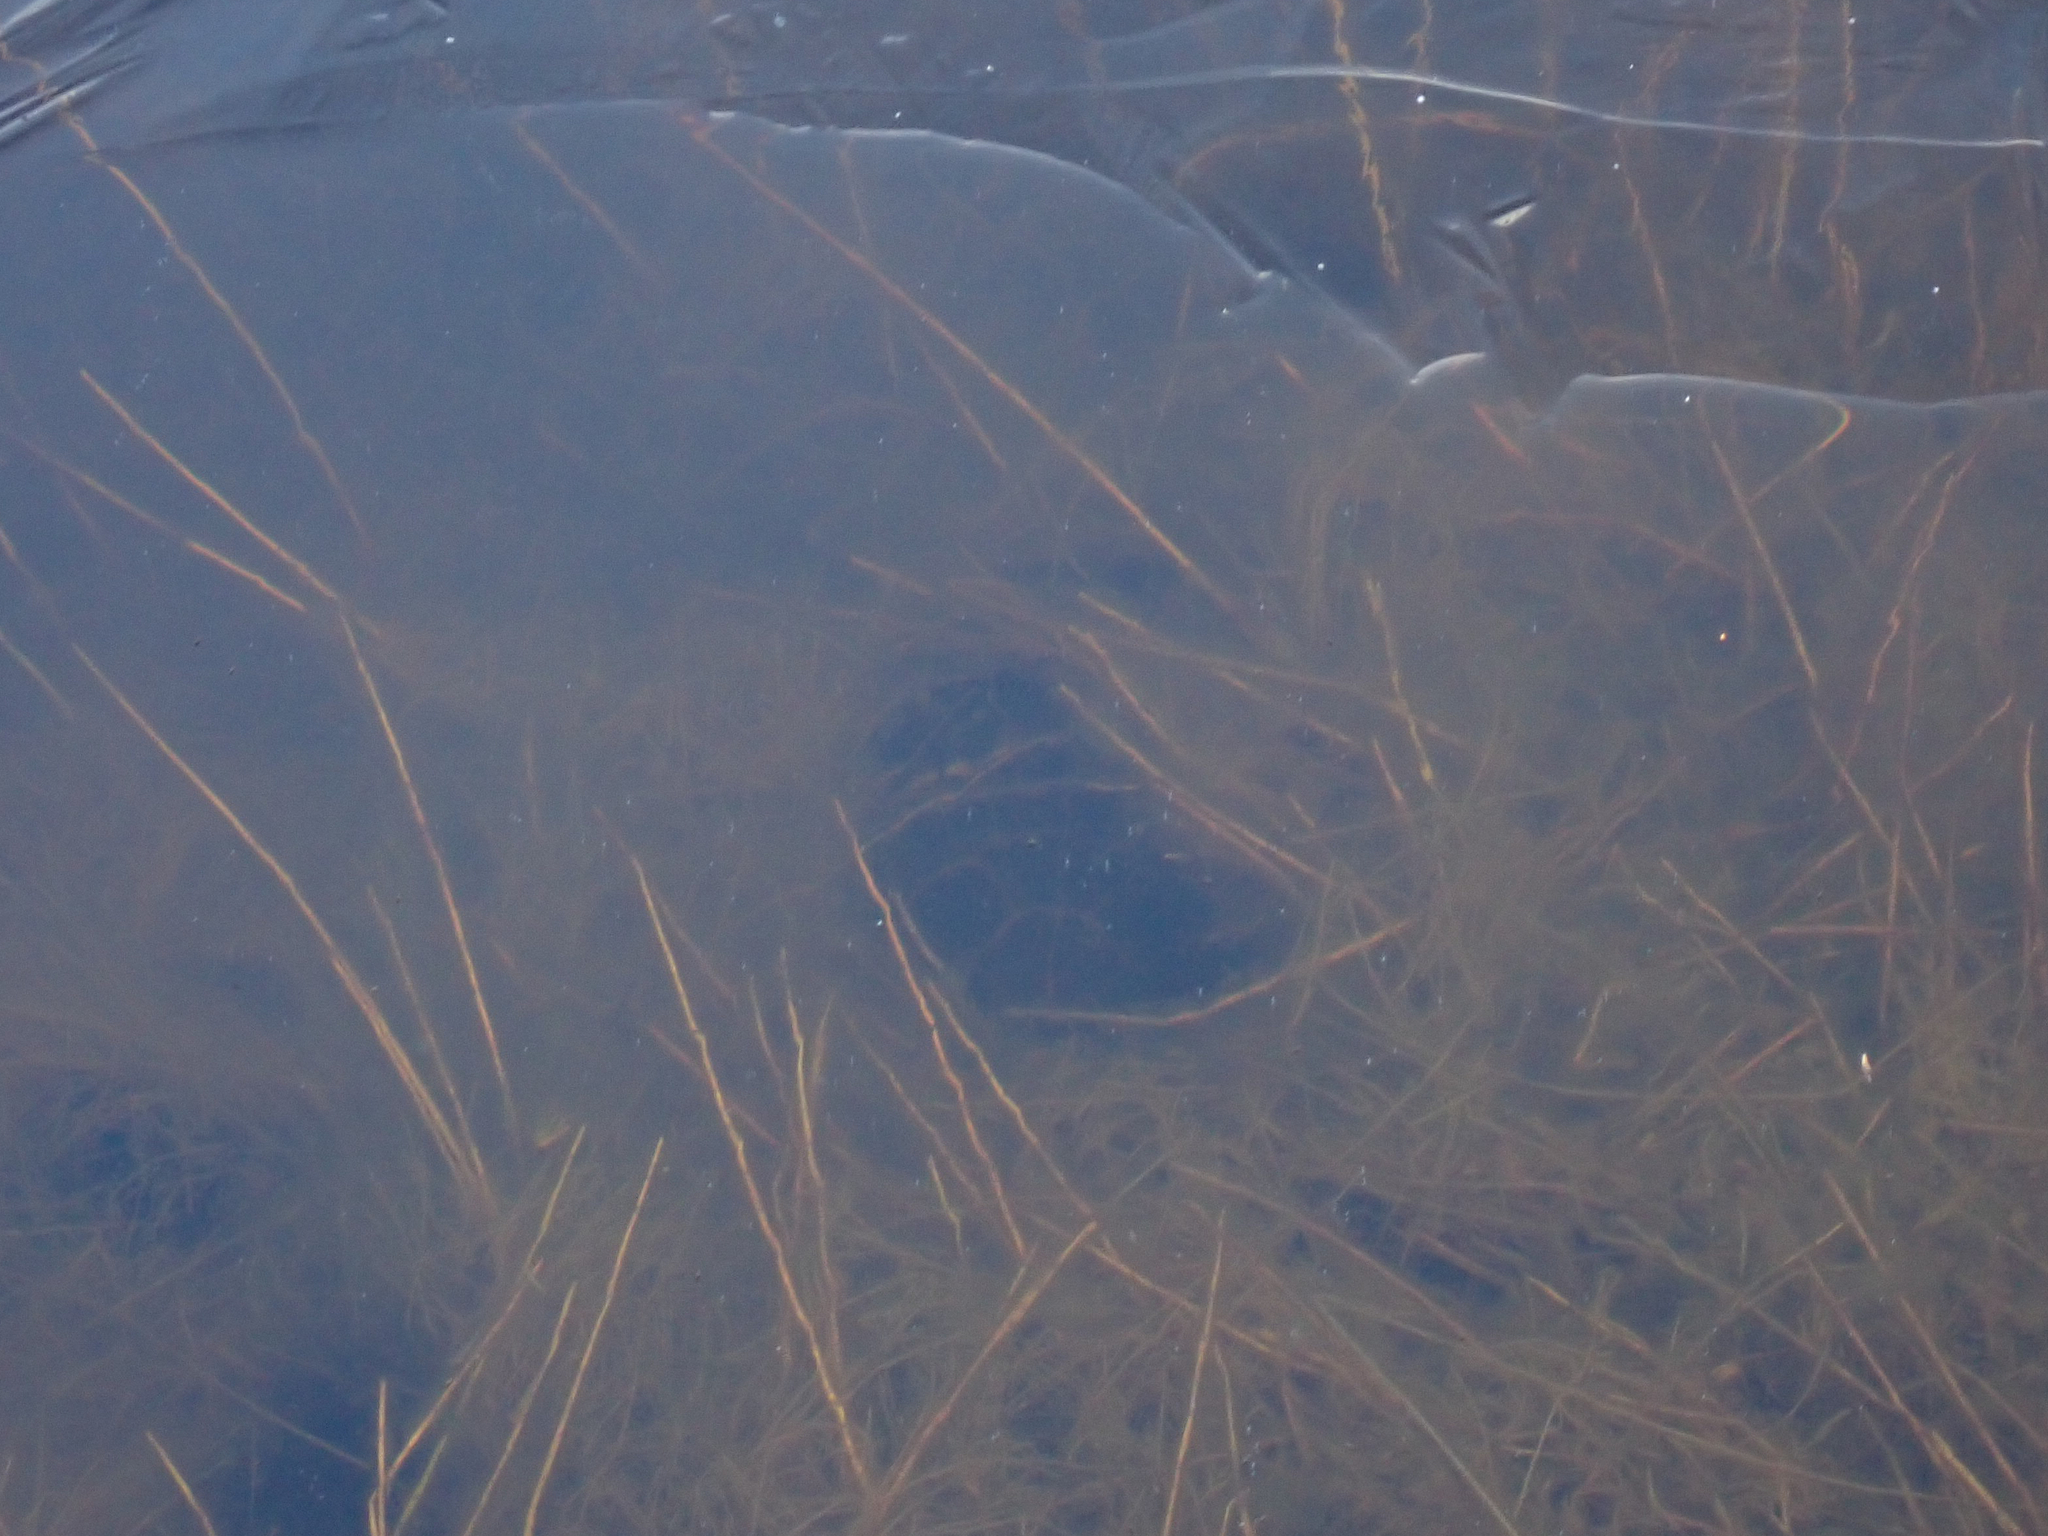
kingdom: Animalia
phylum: Chordata
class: Testudines
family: Emydidae
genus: Chrysemys
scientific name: Chrysemys picta
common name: Painted turtle
